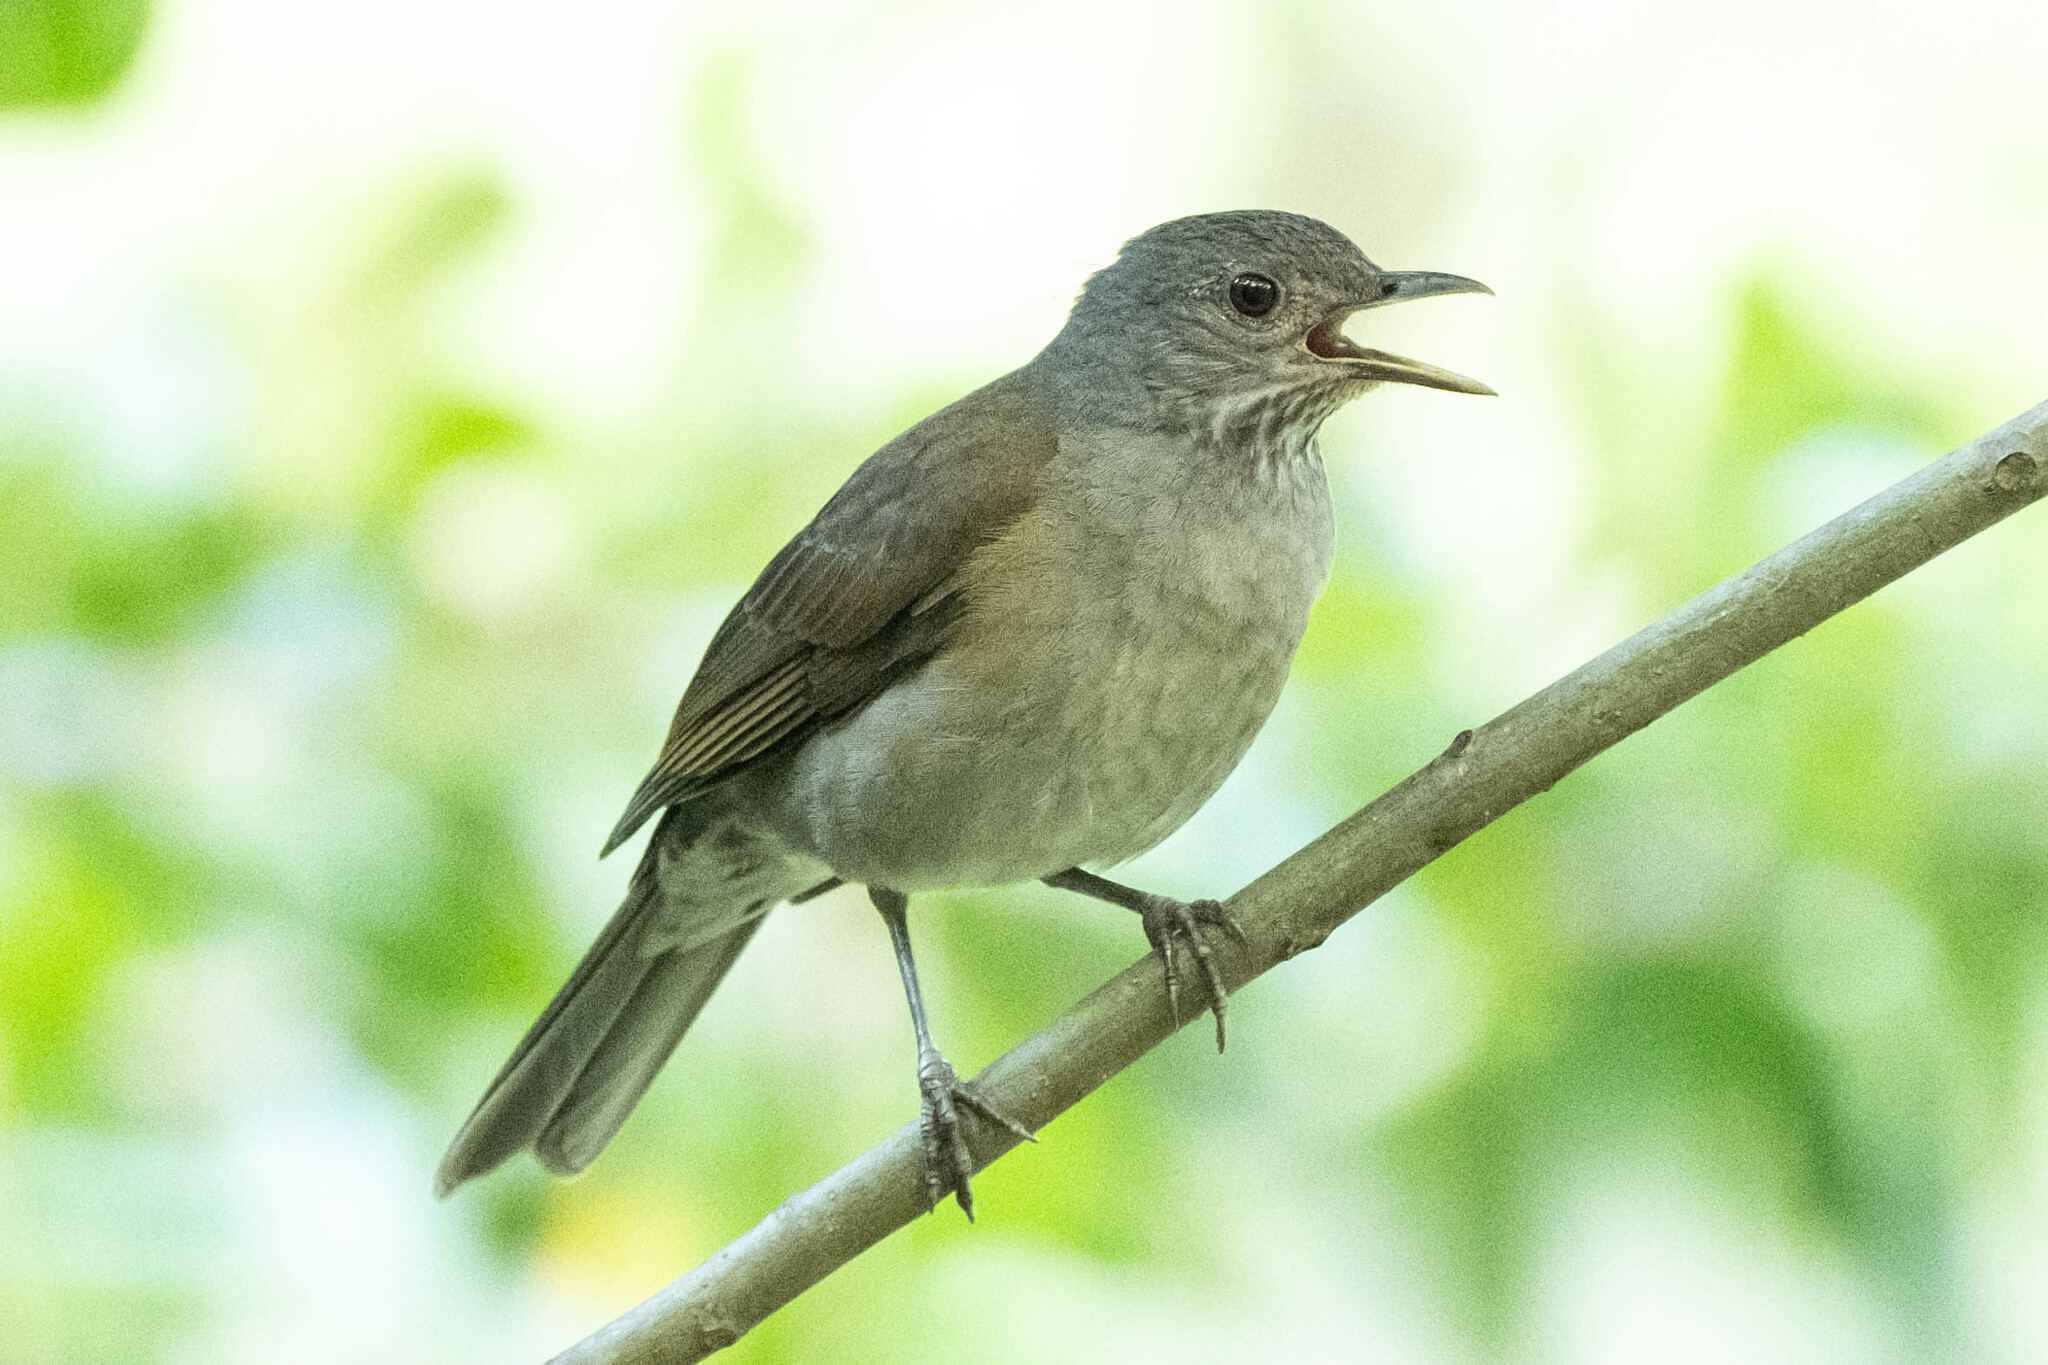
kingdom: Animalia
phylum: Chordata
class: Aves
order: Passeriformes
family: Turdidae
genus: Turdus
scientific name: Turdus leucomelas
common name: Pale-breasted thrush
